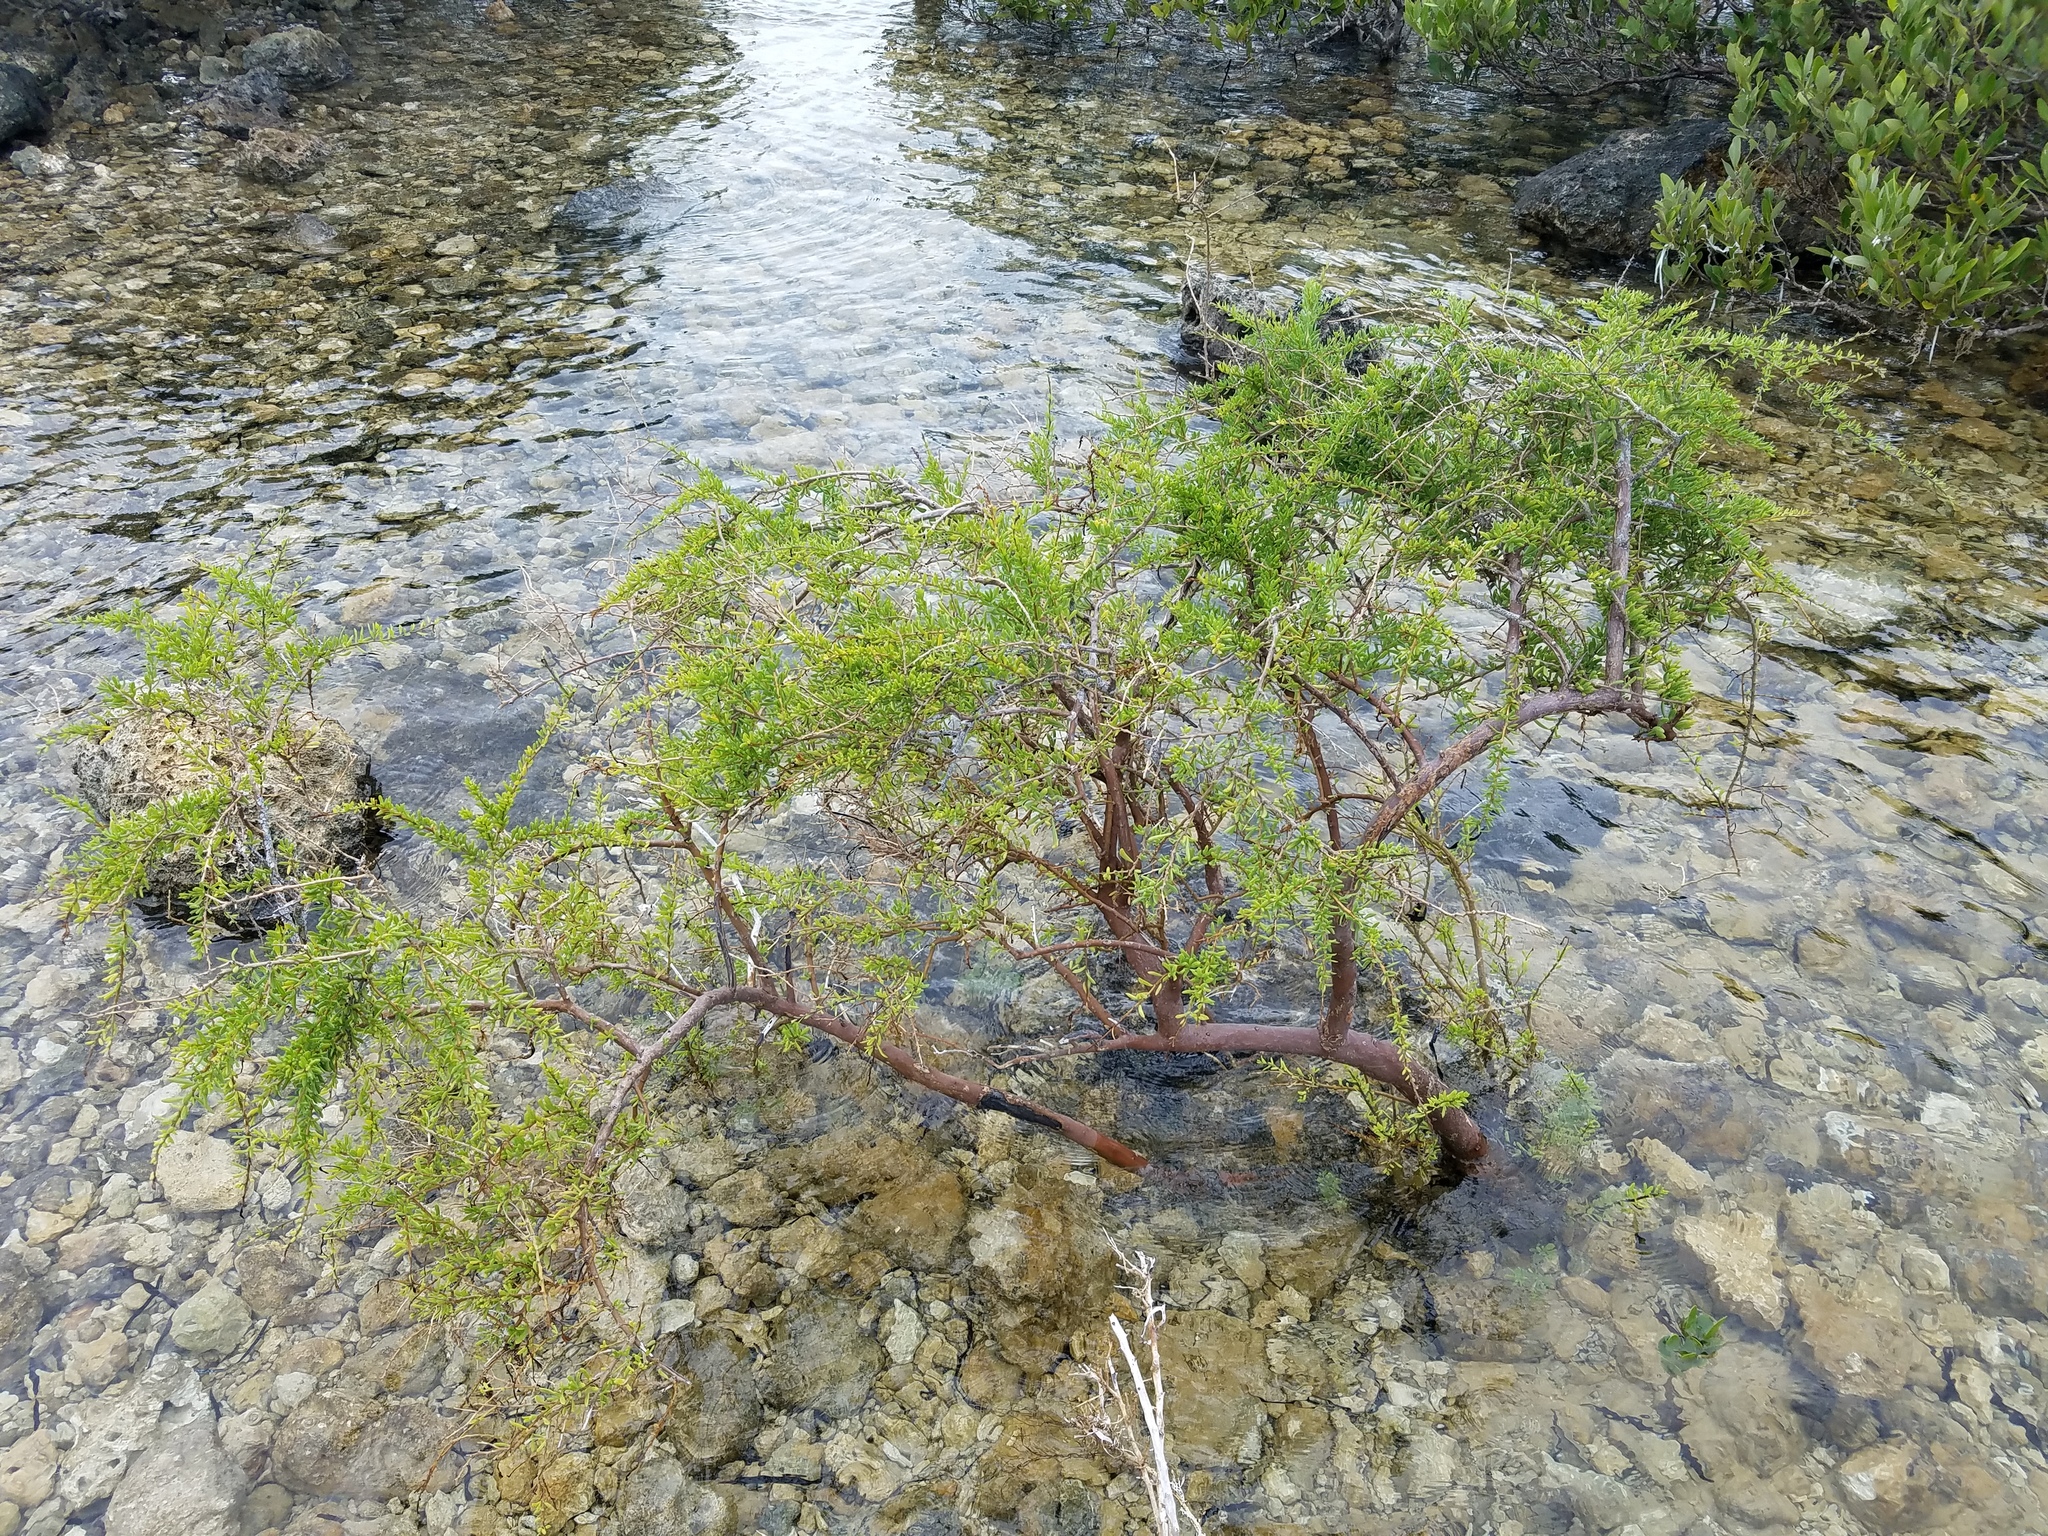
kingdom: Plantae
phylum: Tracheophyta
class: Magnoliopsida
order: Solanales
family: Solanaceae
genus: Lycium
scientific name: Lycium carolinianum
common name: Christmasberry
